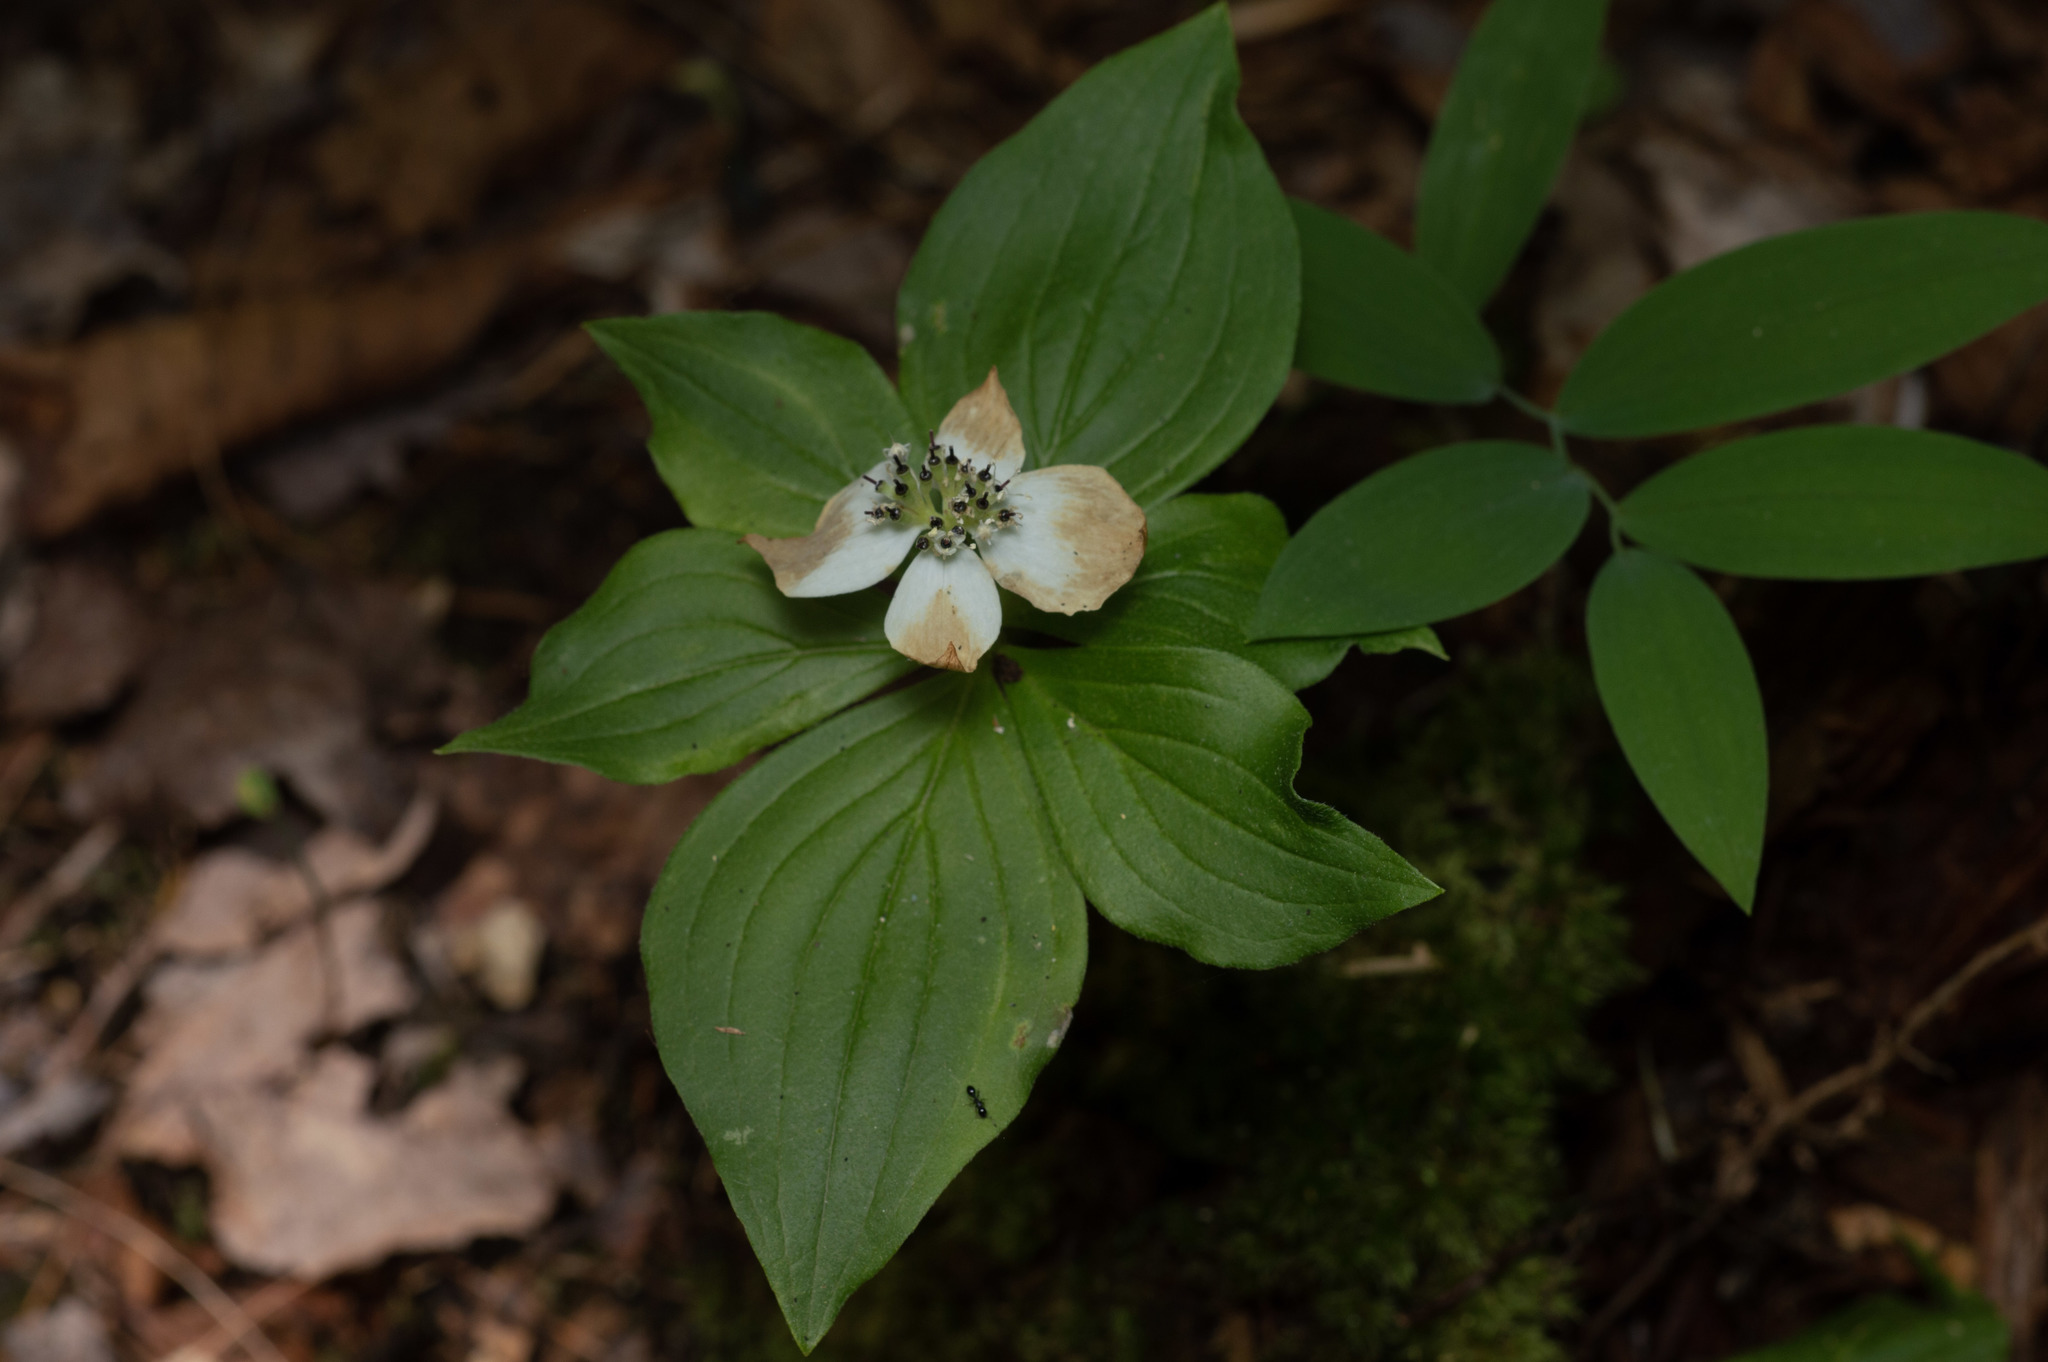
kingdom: Plantae
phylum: Tracheophyta
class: Magnoliopsida
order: Cornales
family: Cornaceae
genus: Cornus
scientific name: Cornus canadensis
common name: Creeping dogwood
